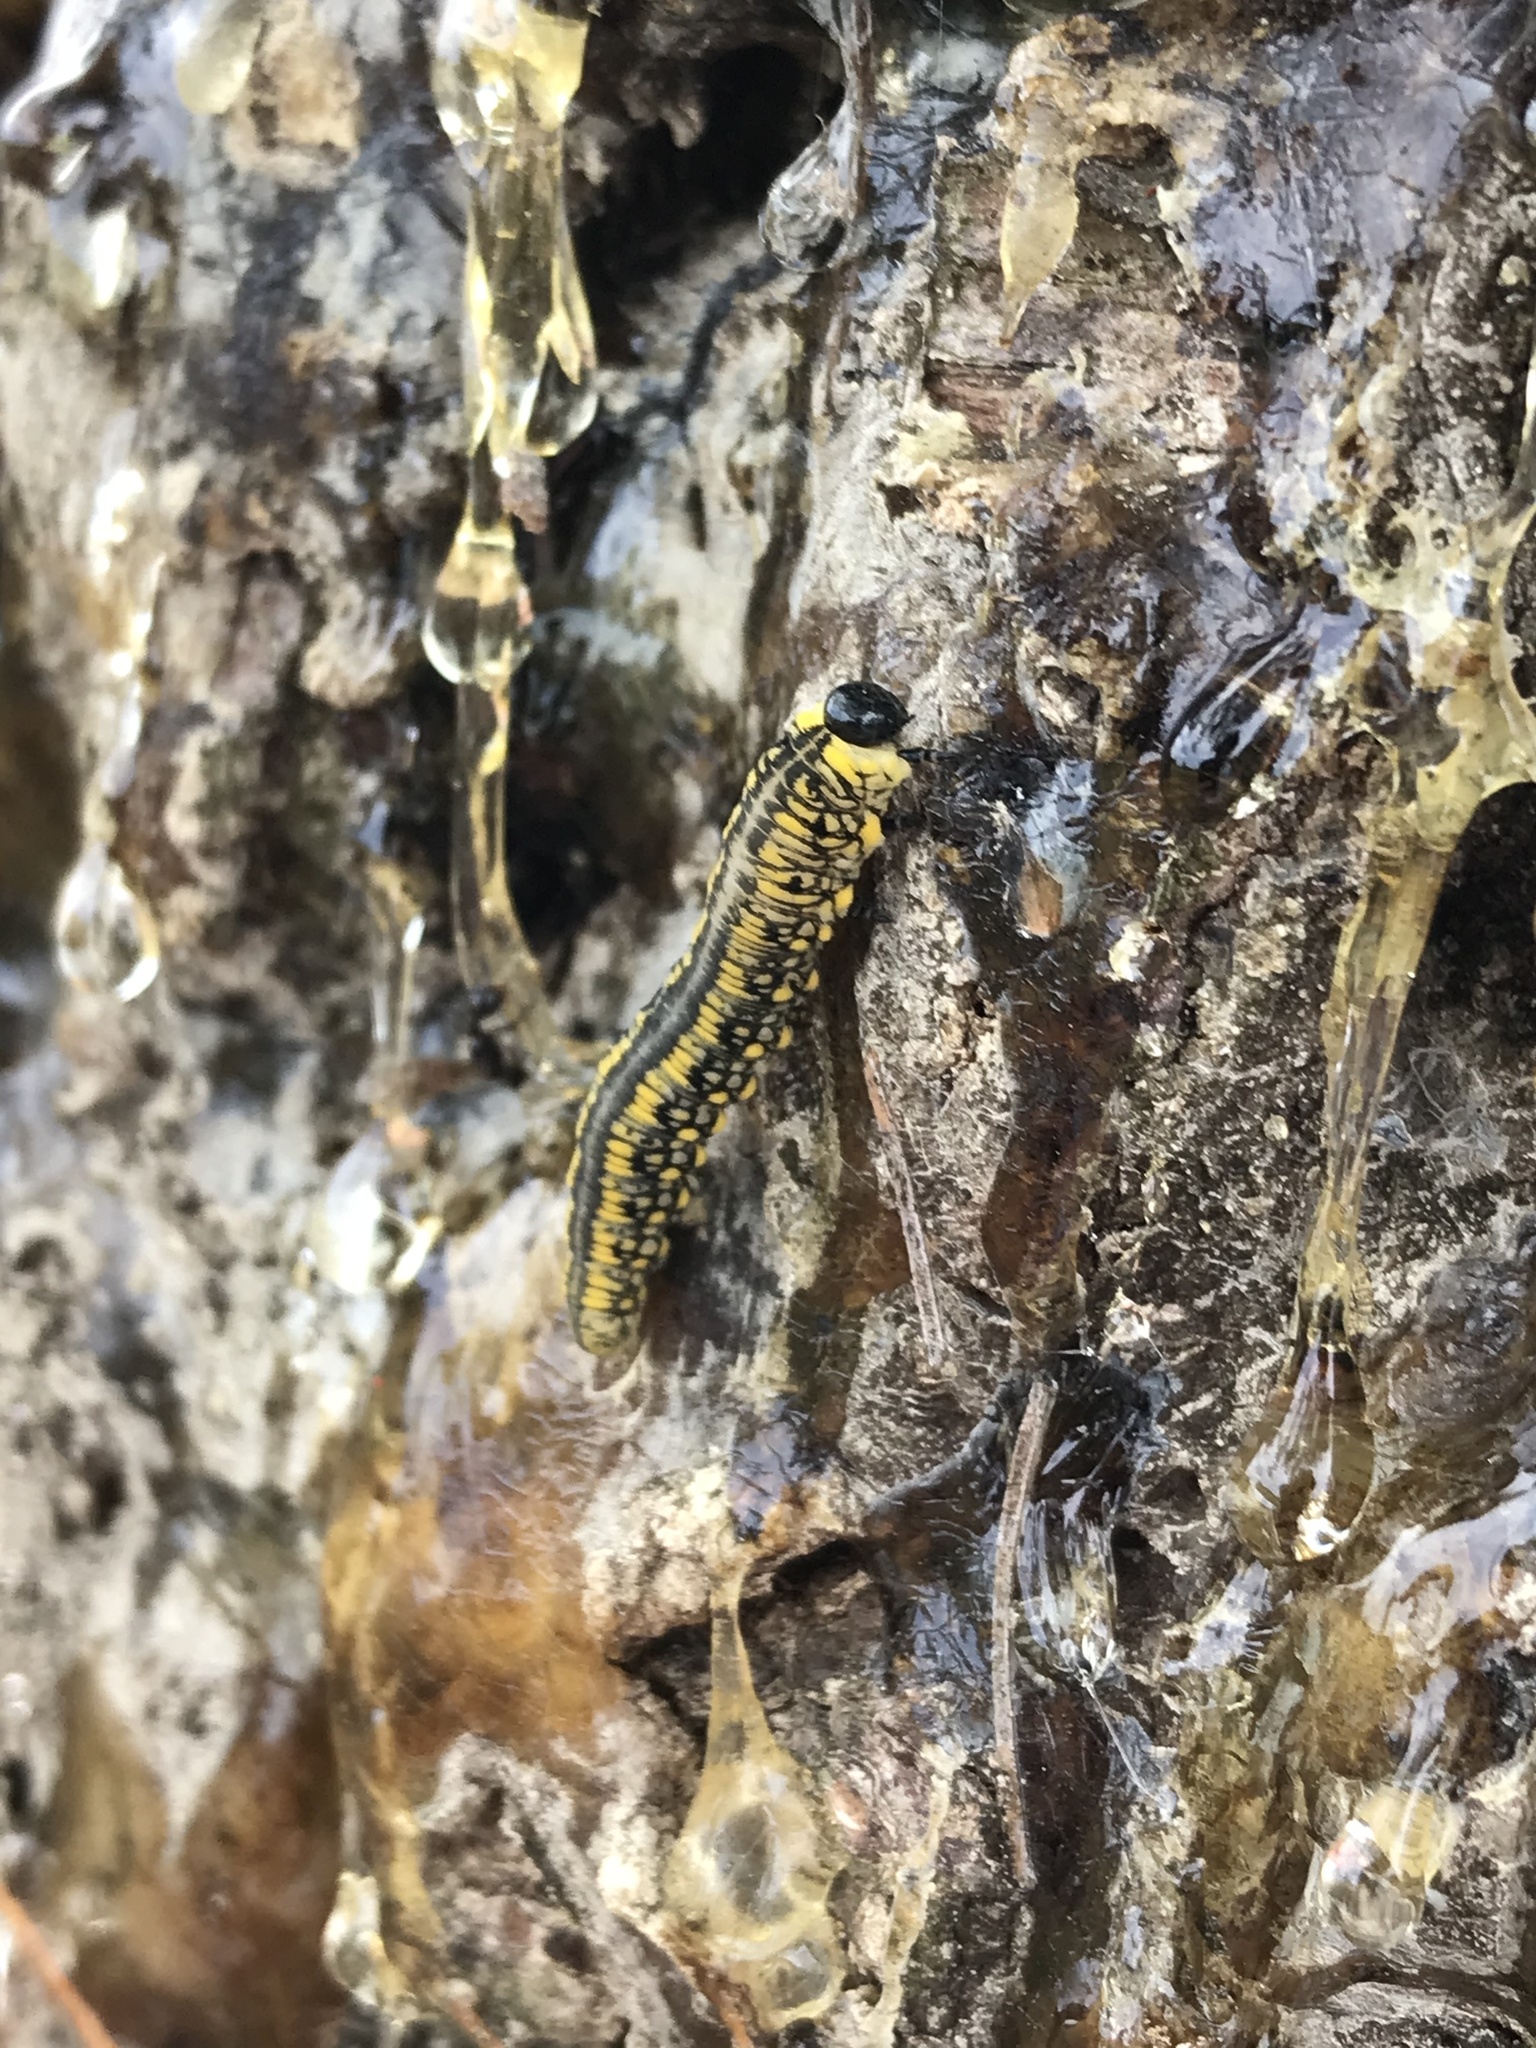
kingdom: Animalia
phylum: Arthropoda
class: Insecta
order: Hymenoptera
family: Diprionidae
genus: Diprion
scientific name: Diprion similis
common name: Pine sawfly
